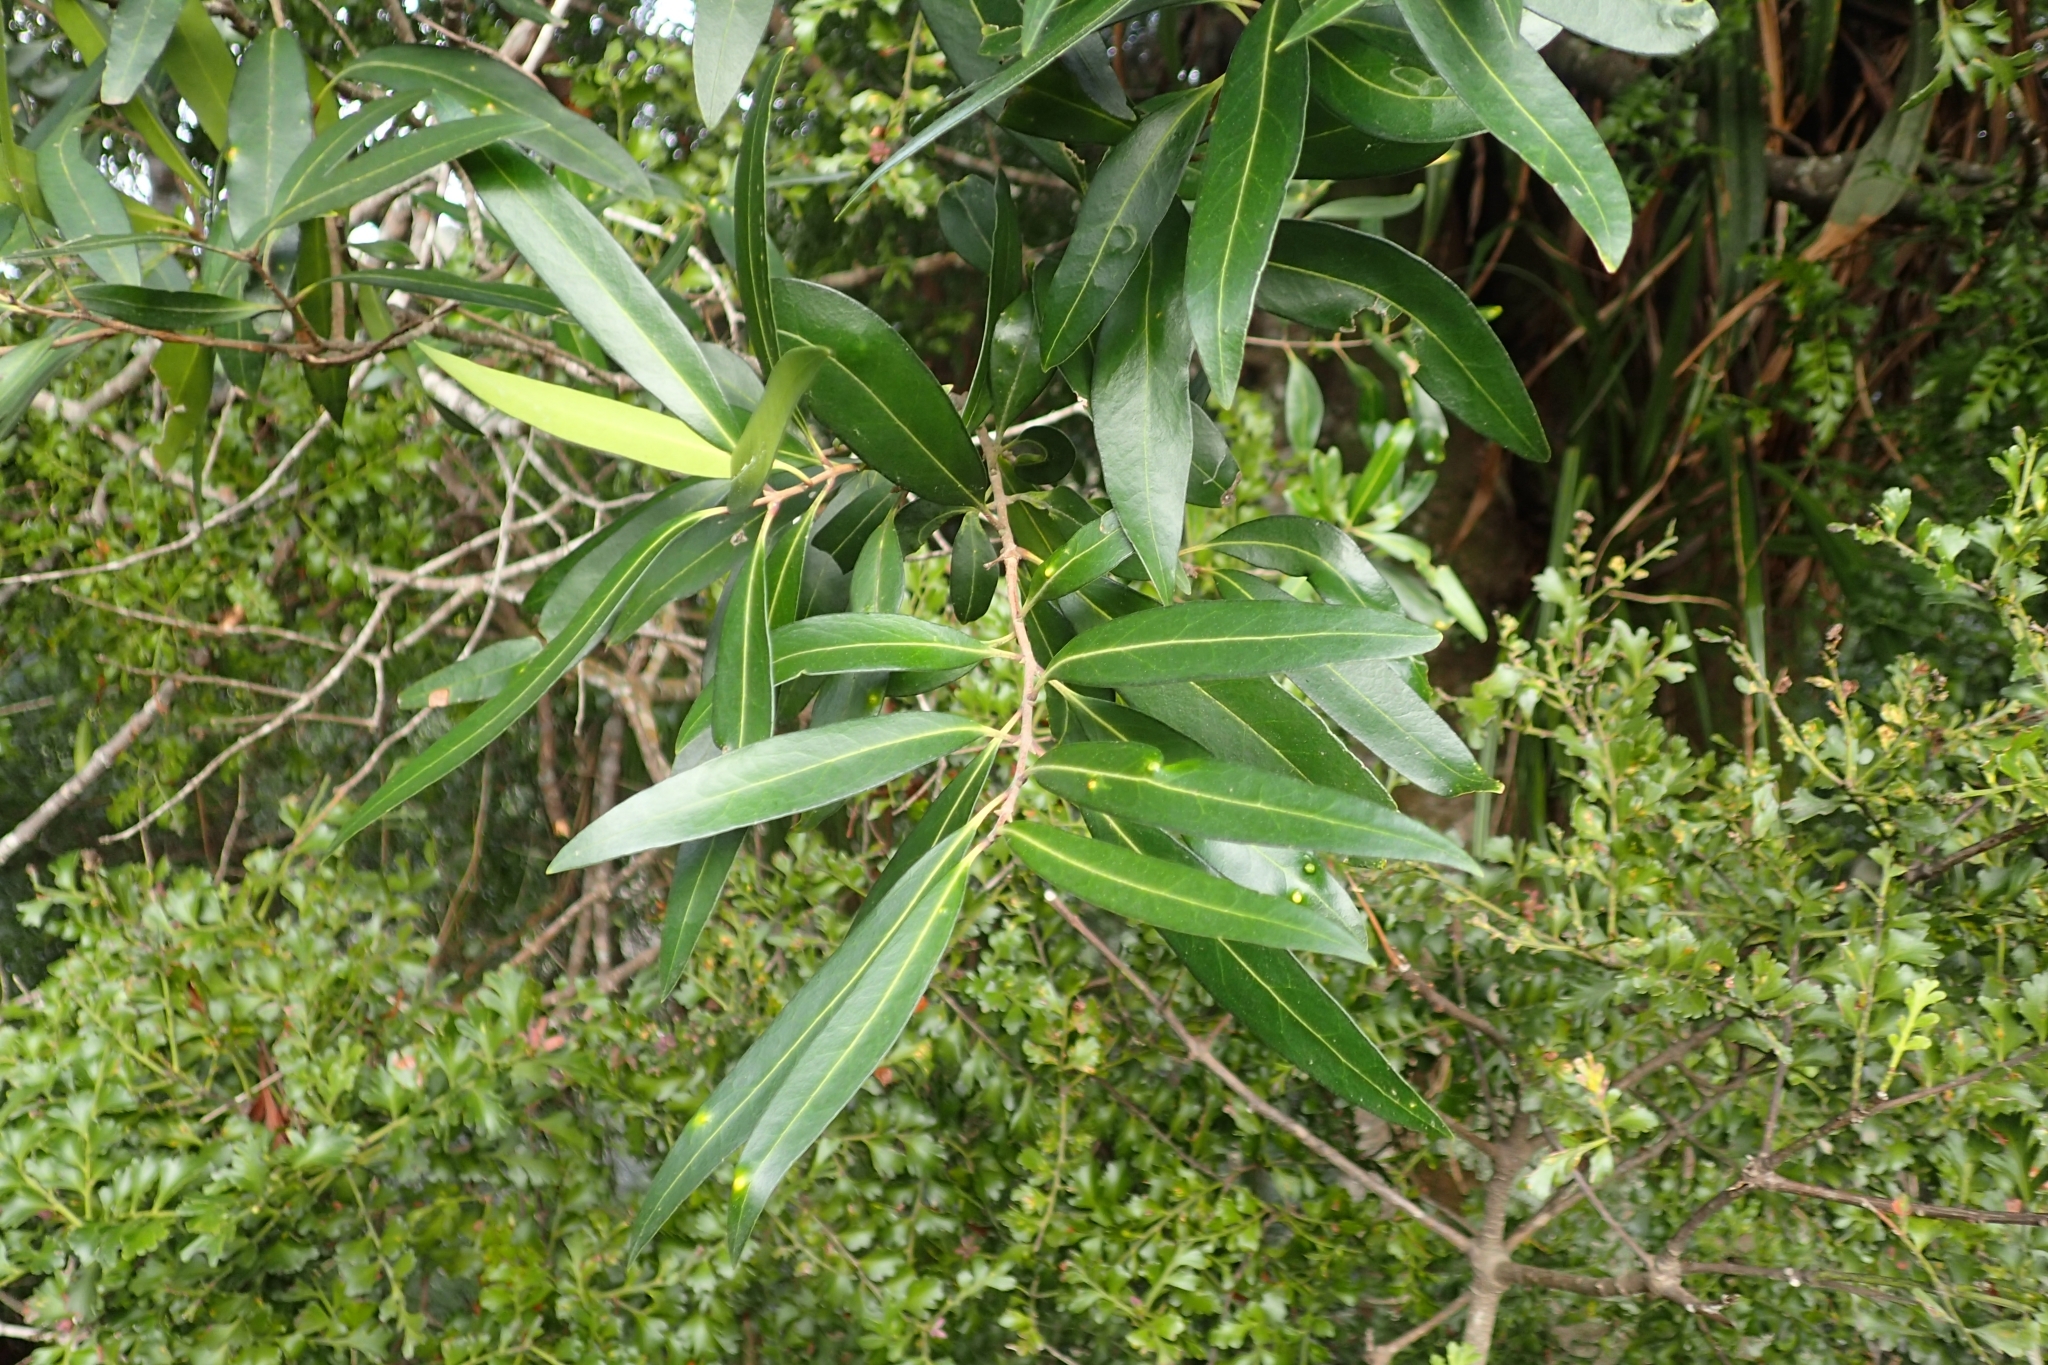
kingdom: Plantae
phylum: Tracheophyta
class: Magnoliopsida
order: Lamiales
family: Oleaceae
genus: Nestegis
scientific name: Nestegis lanceolata
